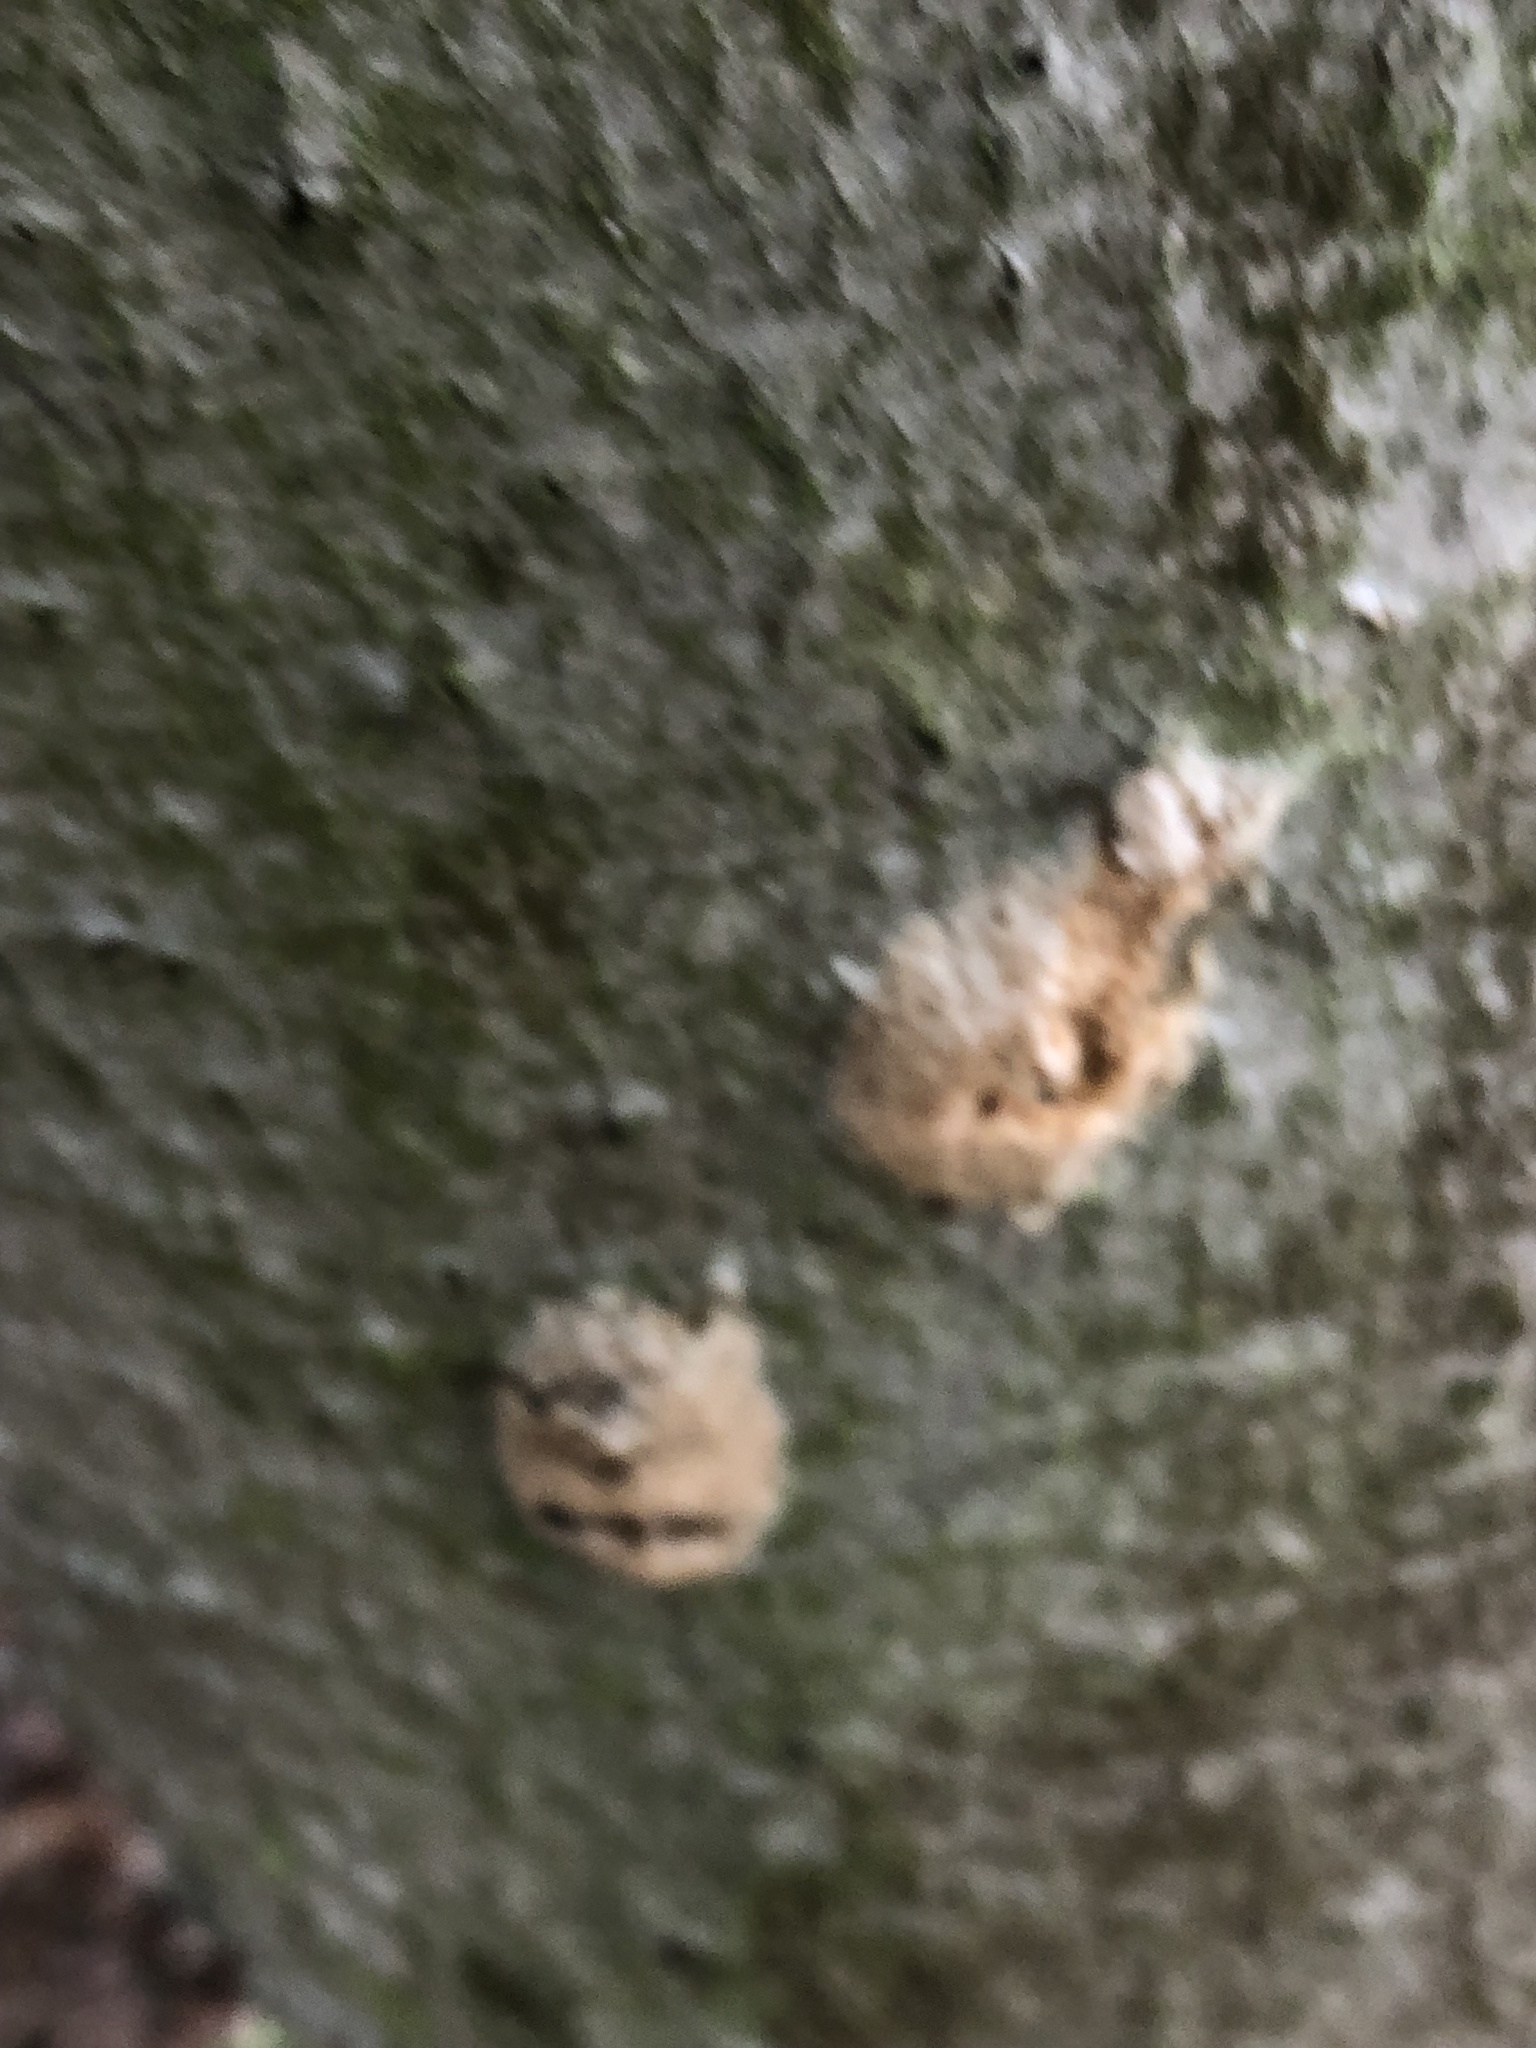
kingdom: Animalia
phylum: Arthropoda
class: Insecta
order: Lepidoptera
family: Erebidae
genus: Lymantria
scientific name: Lymantria dispar
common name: Gypsy moth
